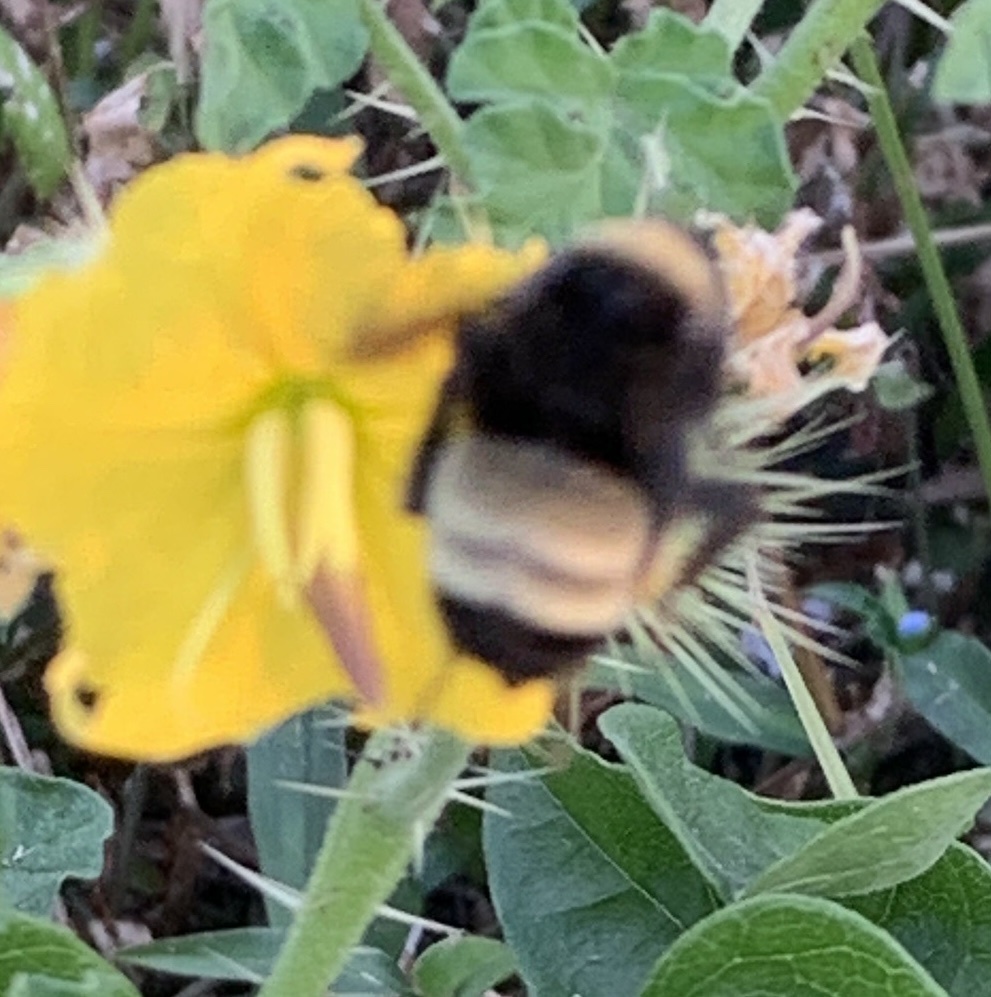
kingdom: Animalia
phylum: Arthropoda
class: Insecta
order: Hymenoptera
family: Apidae
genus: Bombus
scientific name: Bombus pensylvanicus
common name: Bumble bee
